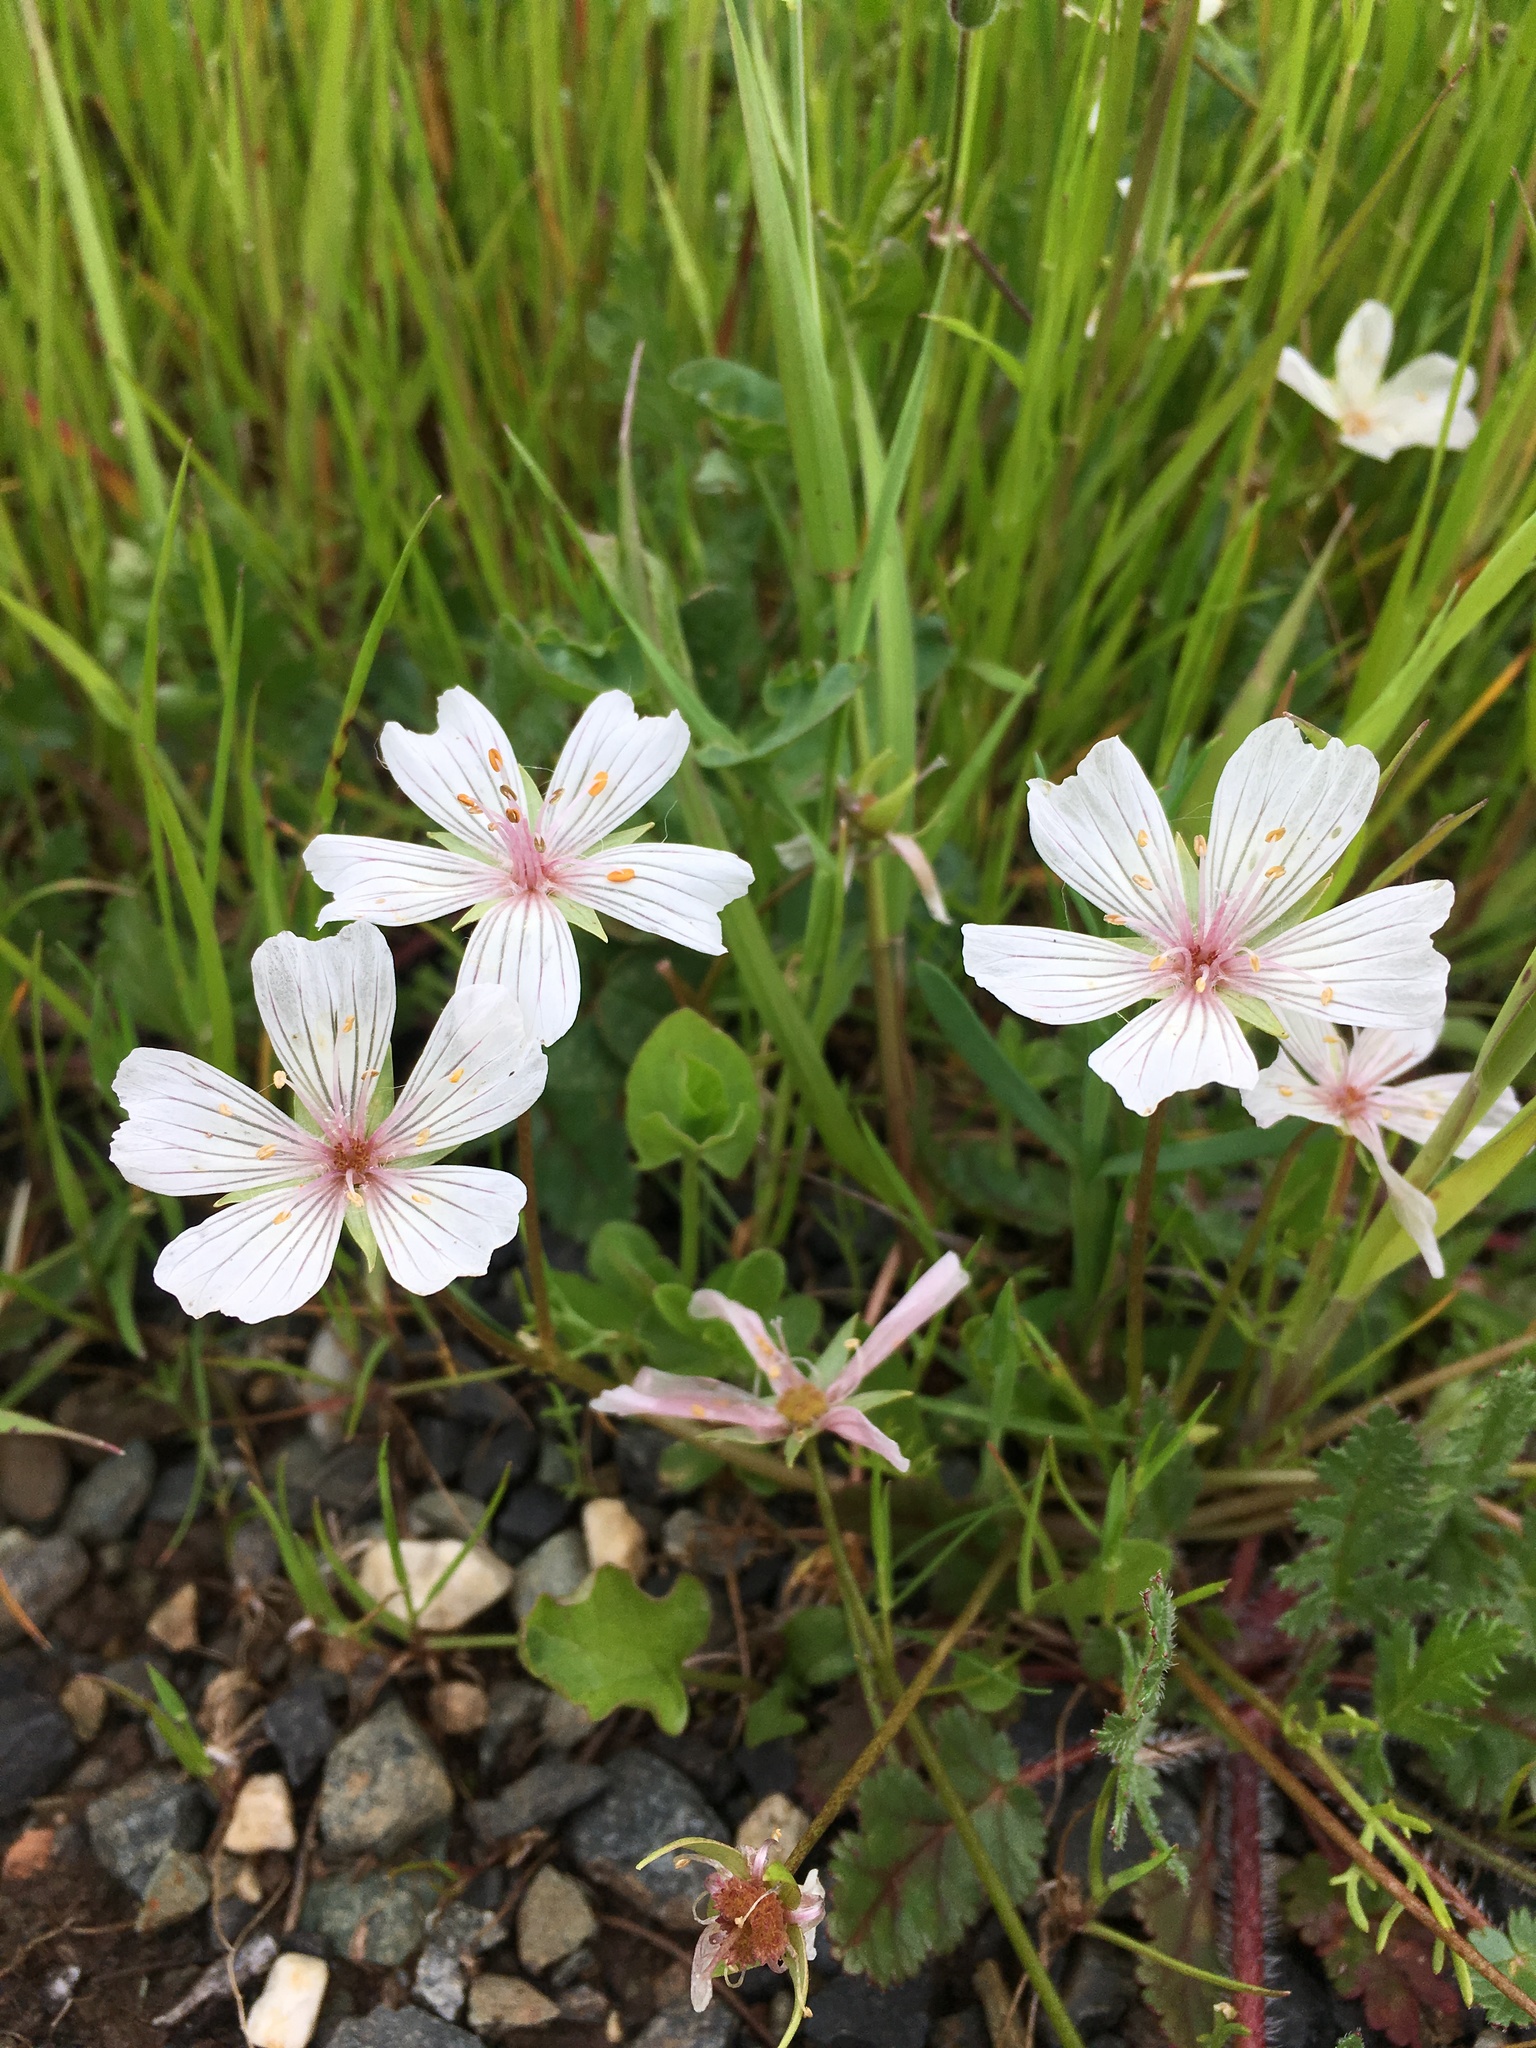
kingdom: Plantae
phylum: Tracheophyta
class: Magnoliopsida
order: Brassicales
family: Limnanthaceae
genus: Limnanthes
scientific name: Limnanthes douglasii
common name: Meadow-foam
